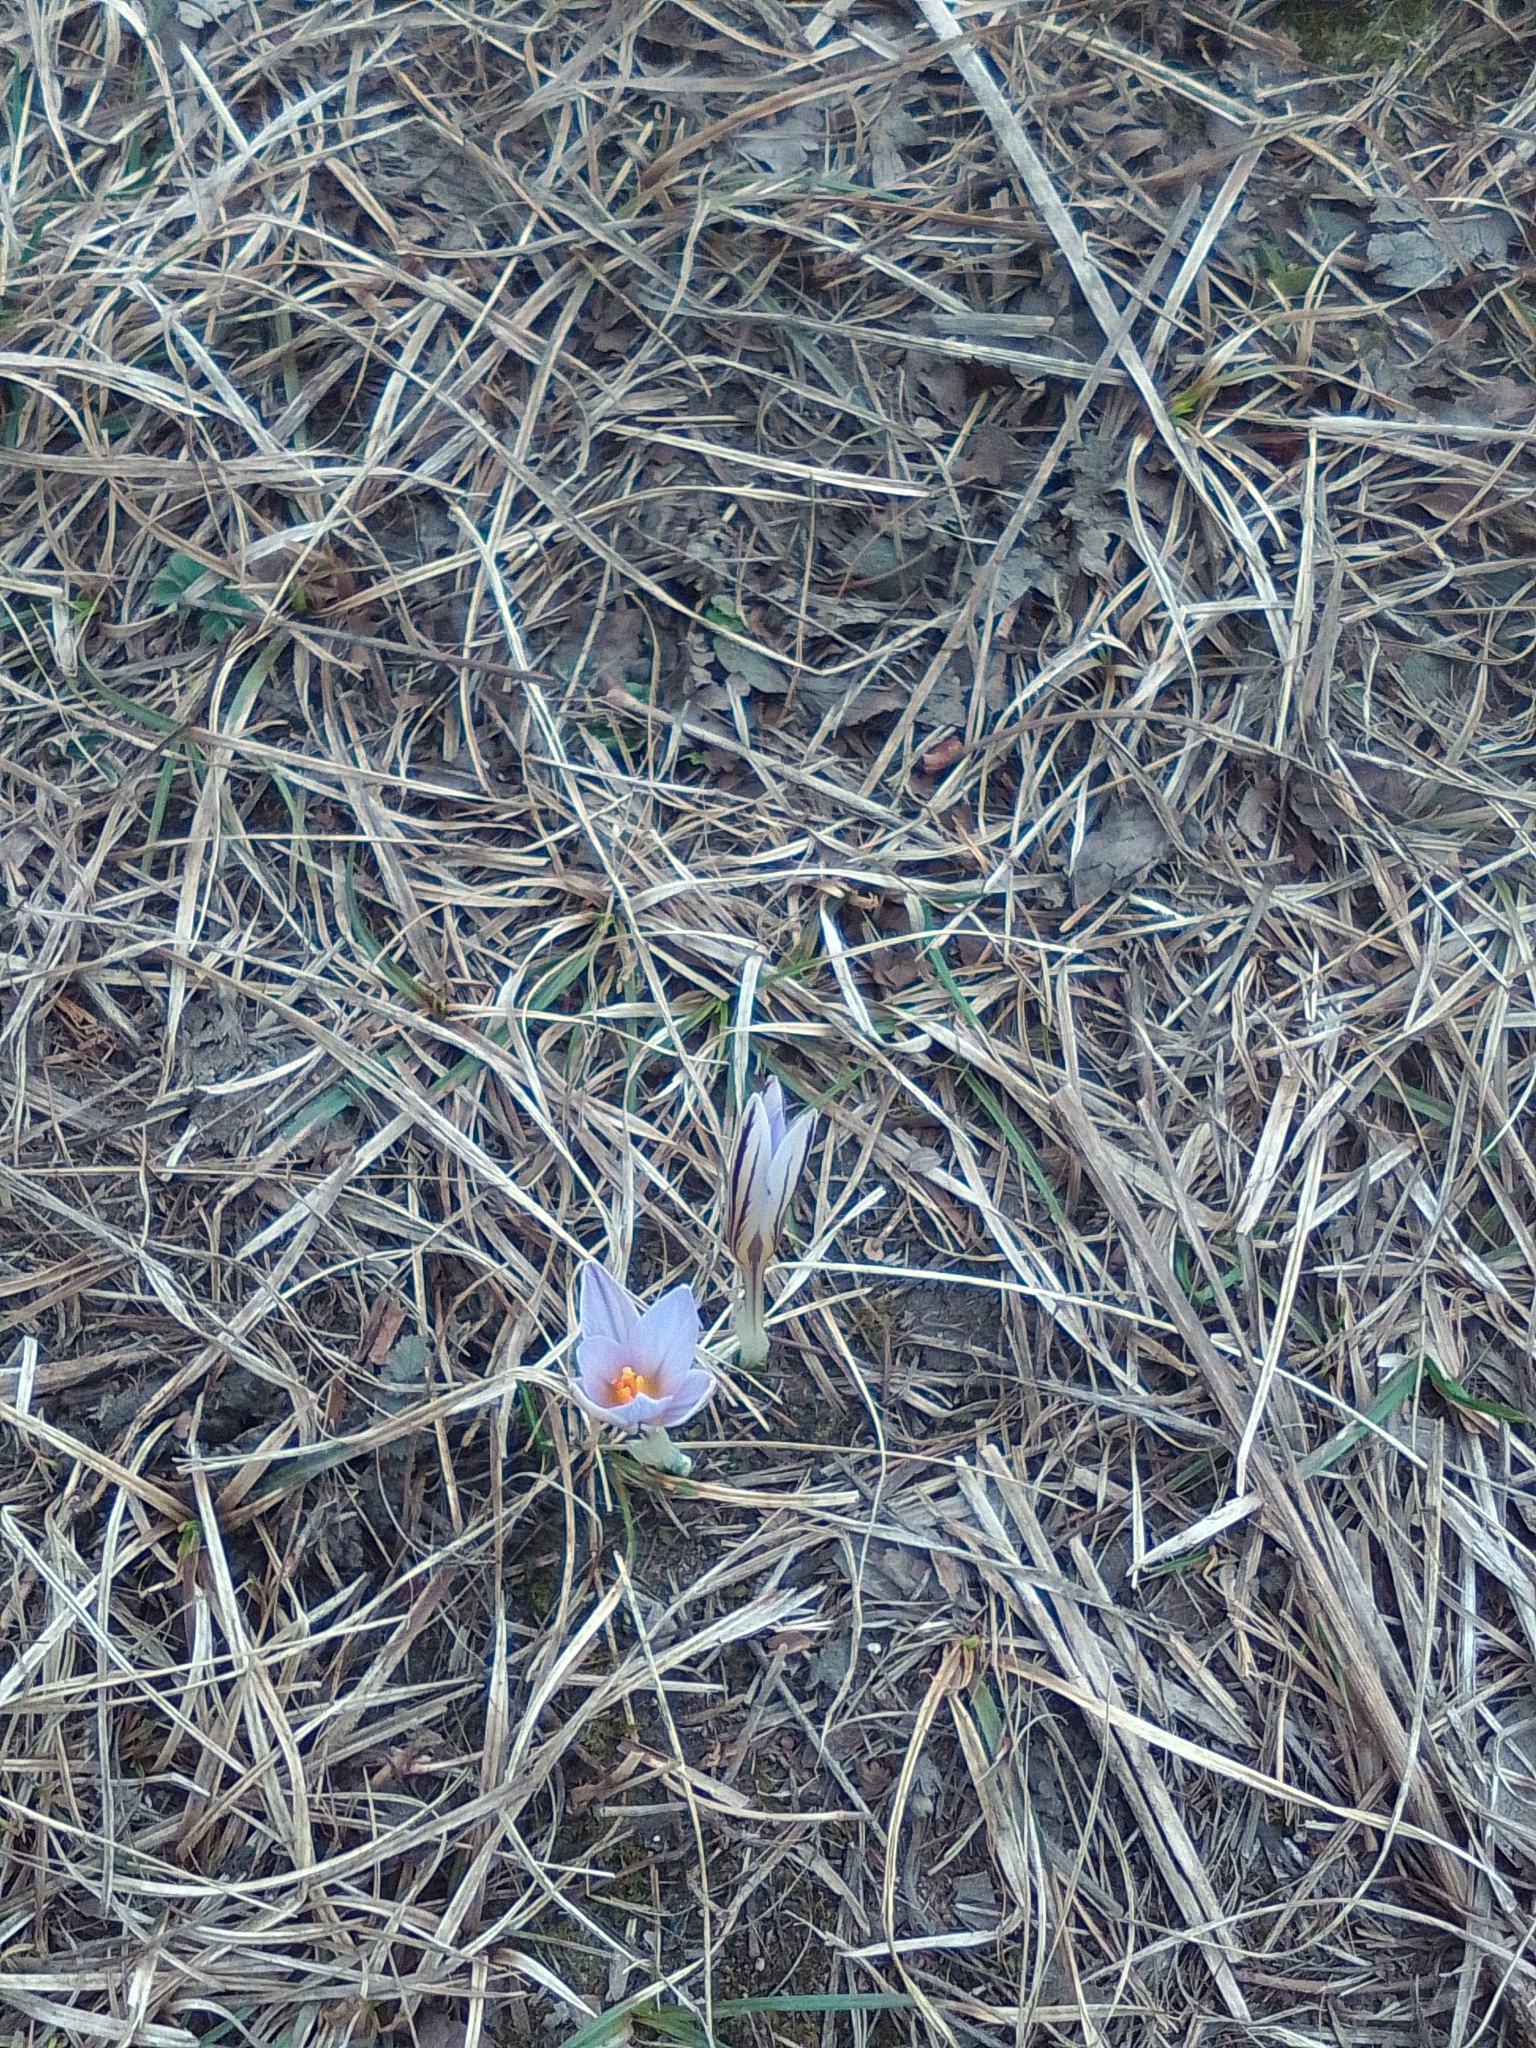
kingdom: Plantae
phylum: Tracheophyta
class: Liliopsida
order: Asparagales
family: Iridaceae
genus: Crocus
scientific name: Crocus reticulatus
